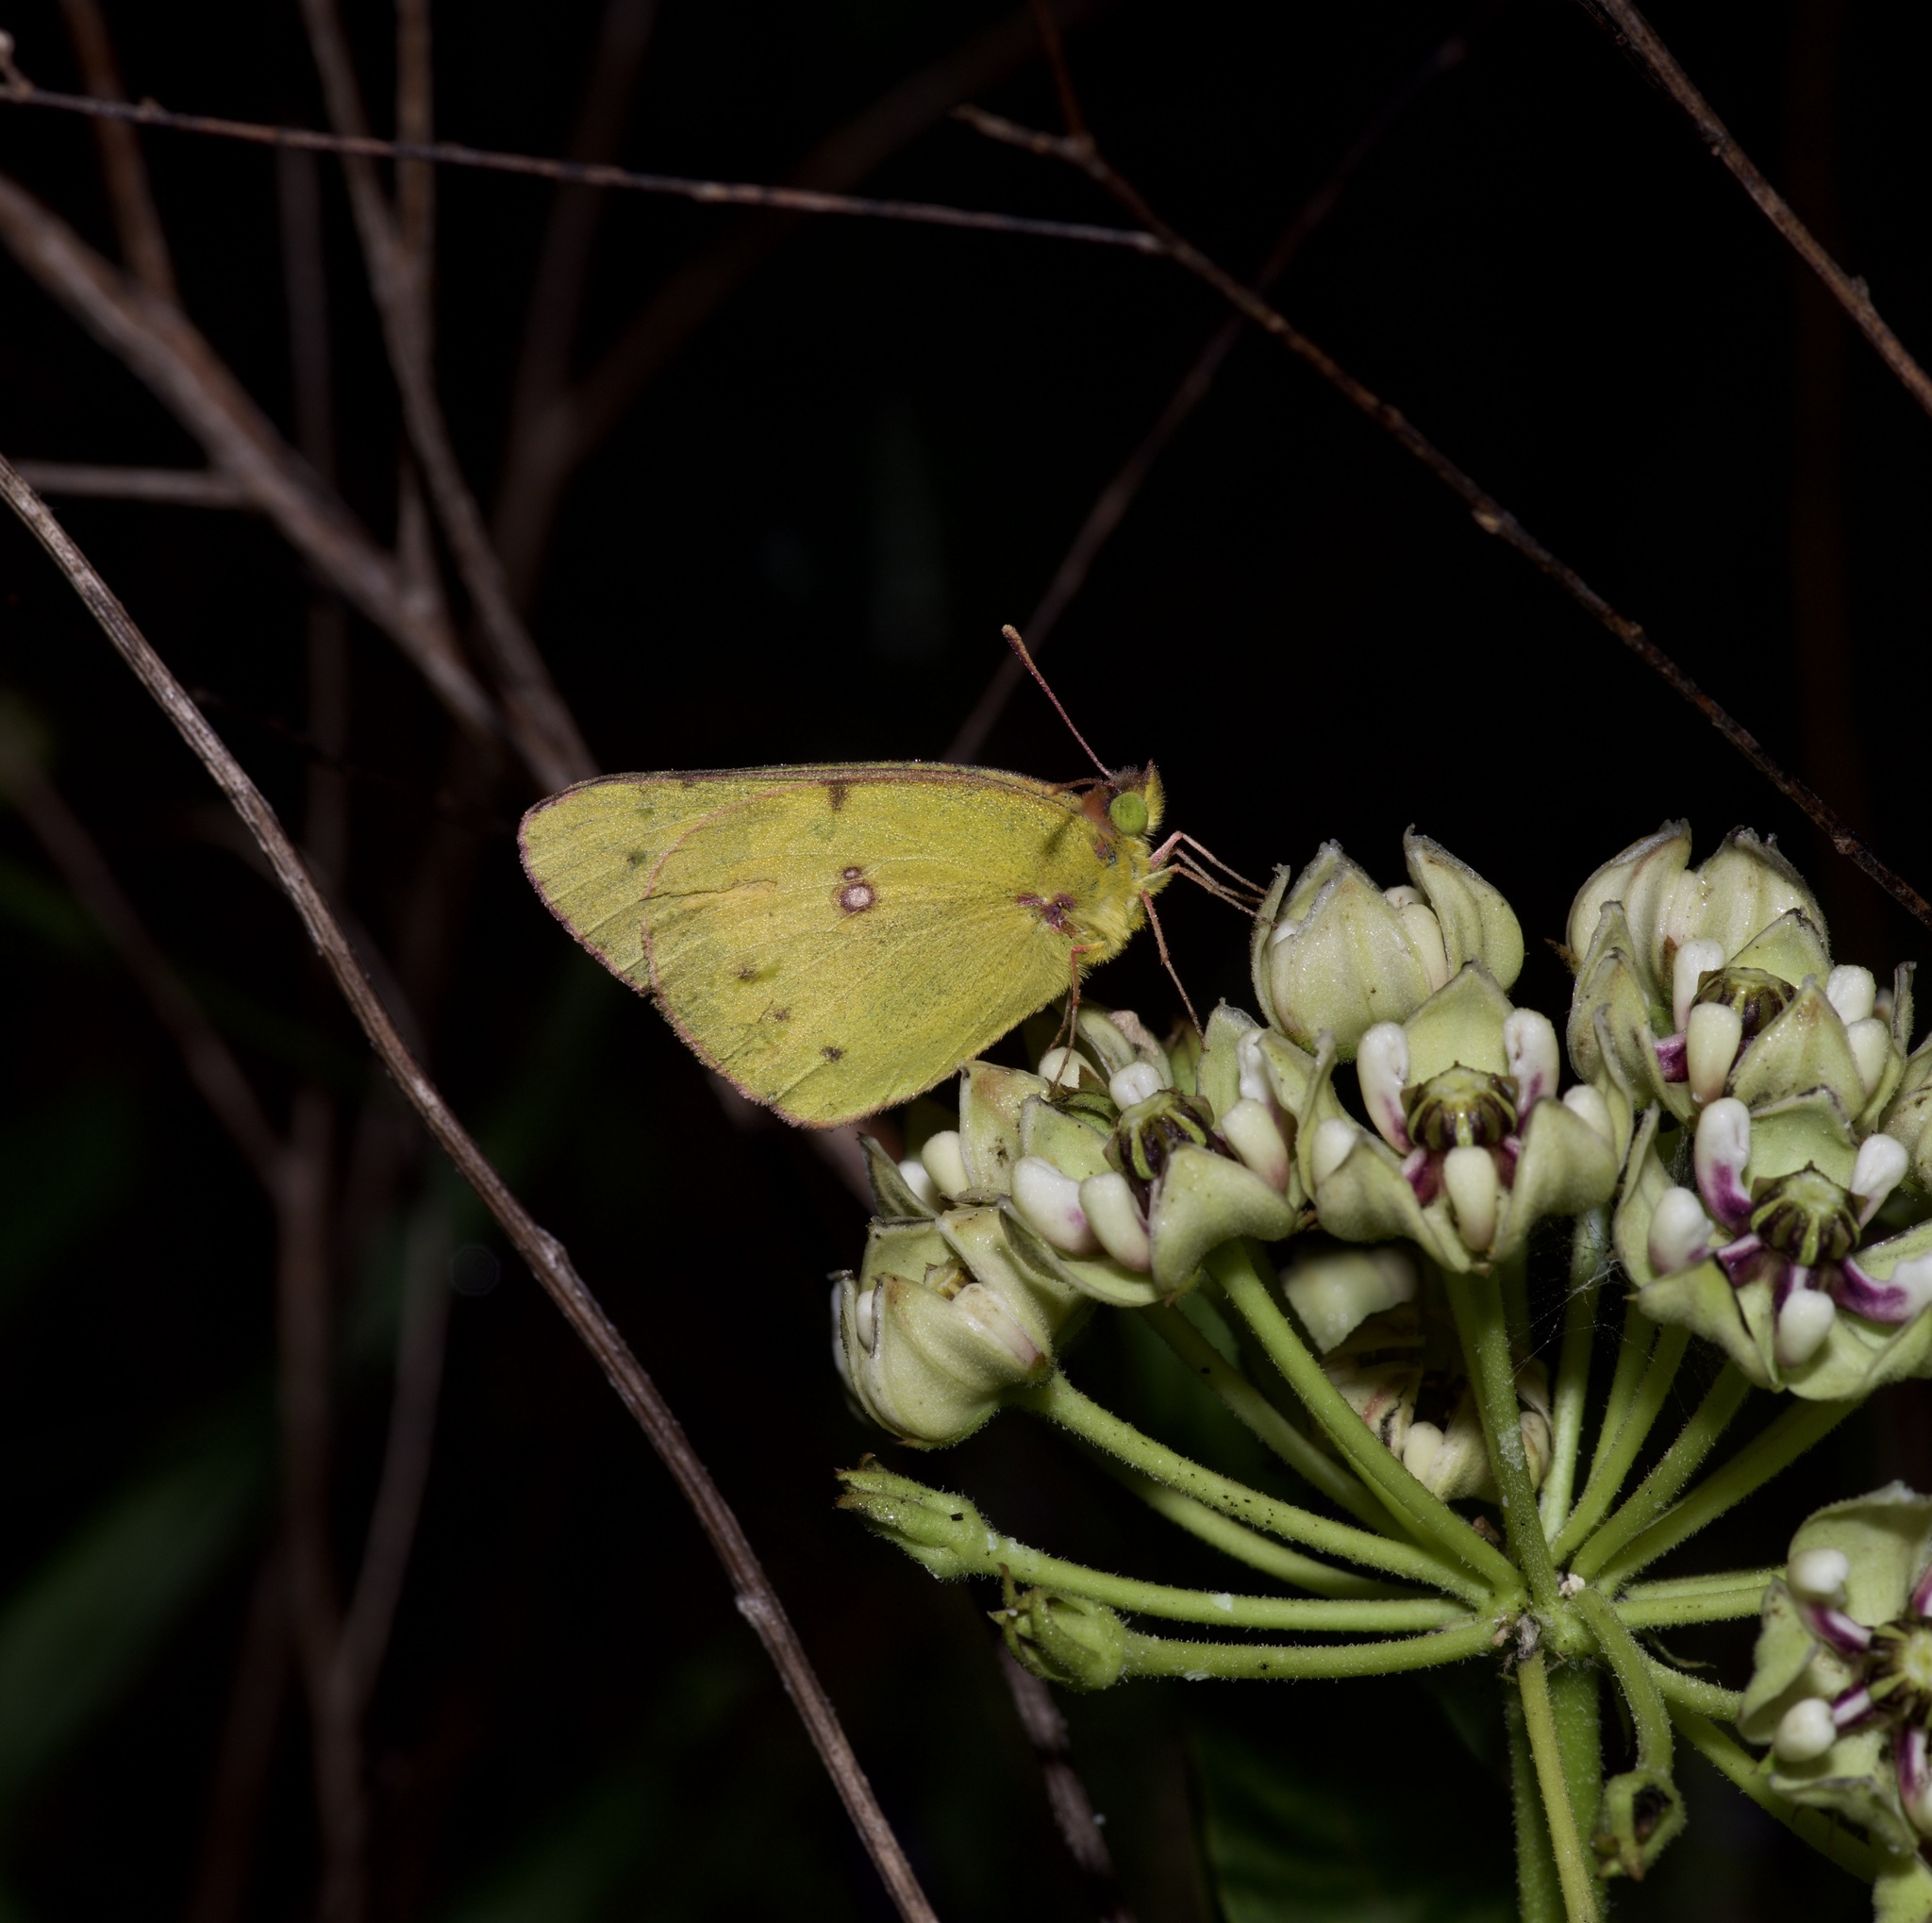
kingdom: Animalia
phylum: Arthropoda
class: Insecta
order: Lepidoptera
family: Pieridae
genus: Colias
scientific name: Colias eurytheme
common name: Alfalfa butterfly
